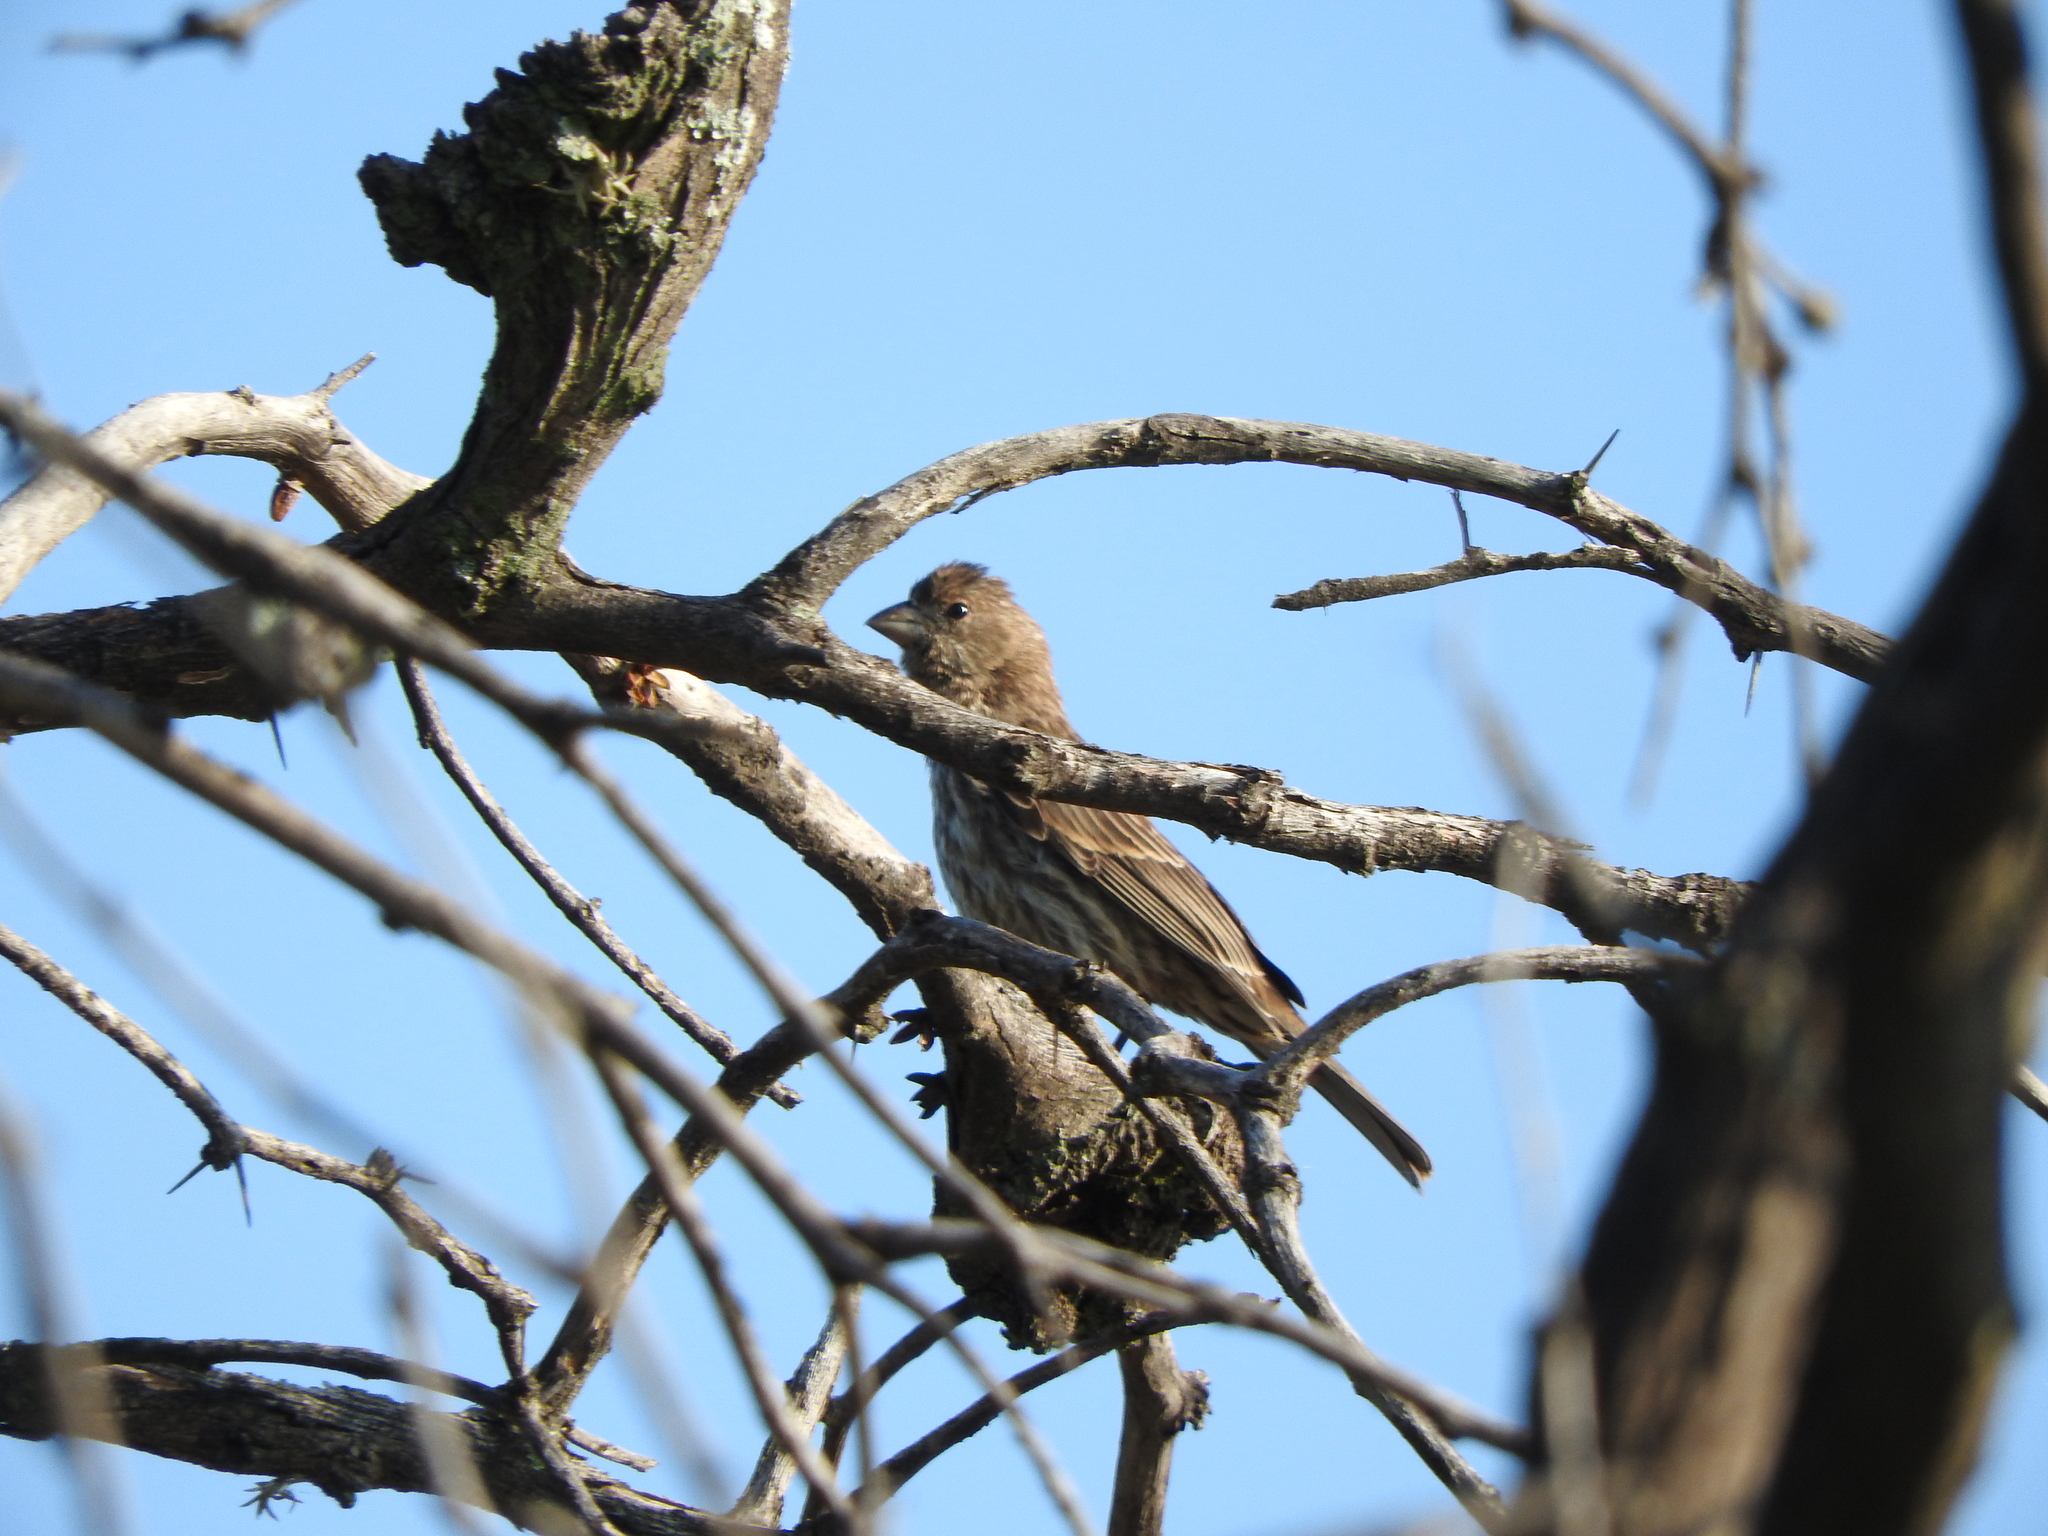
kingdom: Animalia
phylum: Chordata
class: Aves
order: Passeriformes
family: Fringillidae
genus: Haemorhous
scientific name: Haemorhous mexicanus
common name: House finch
